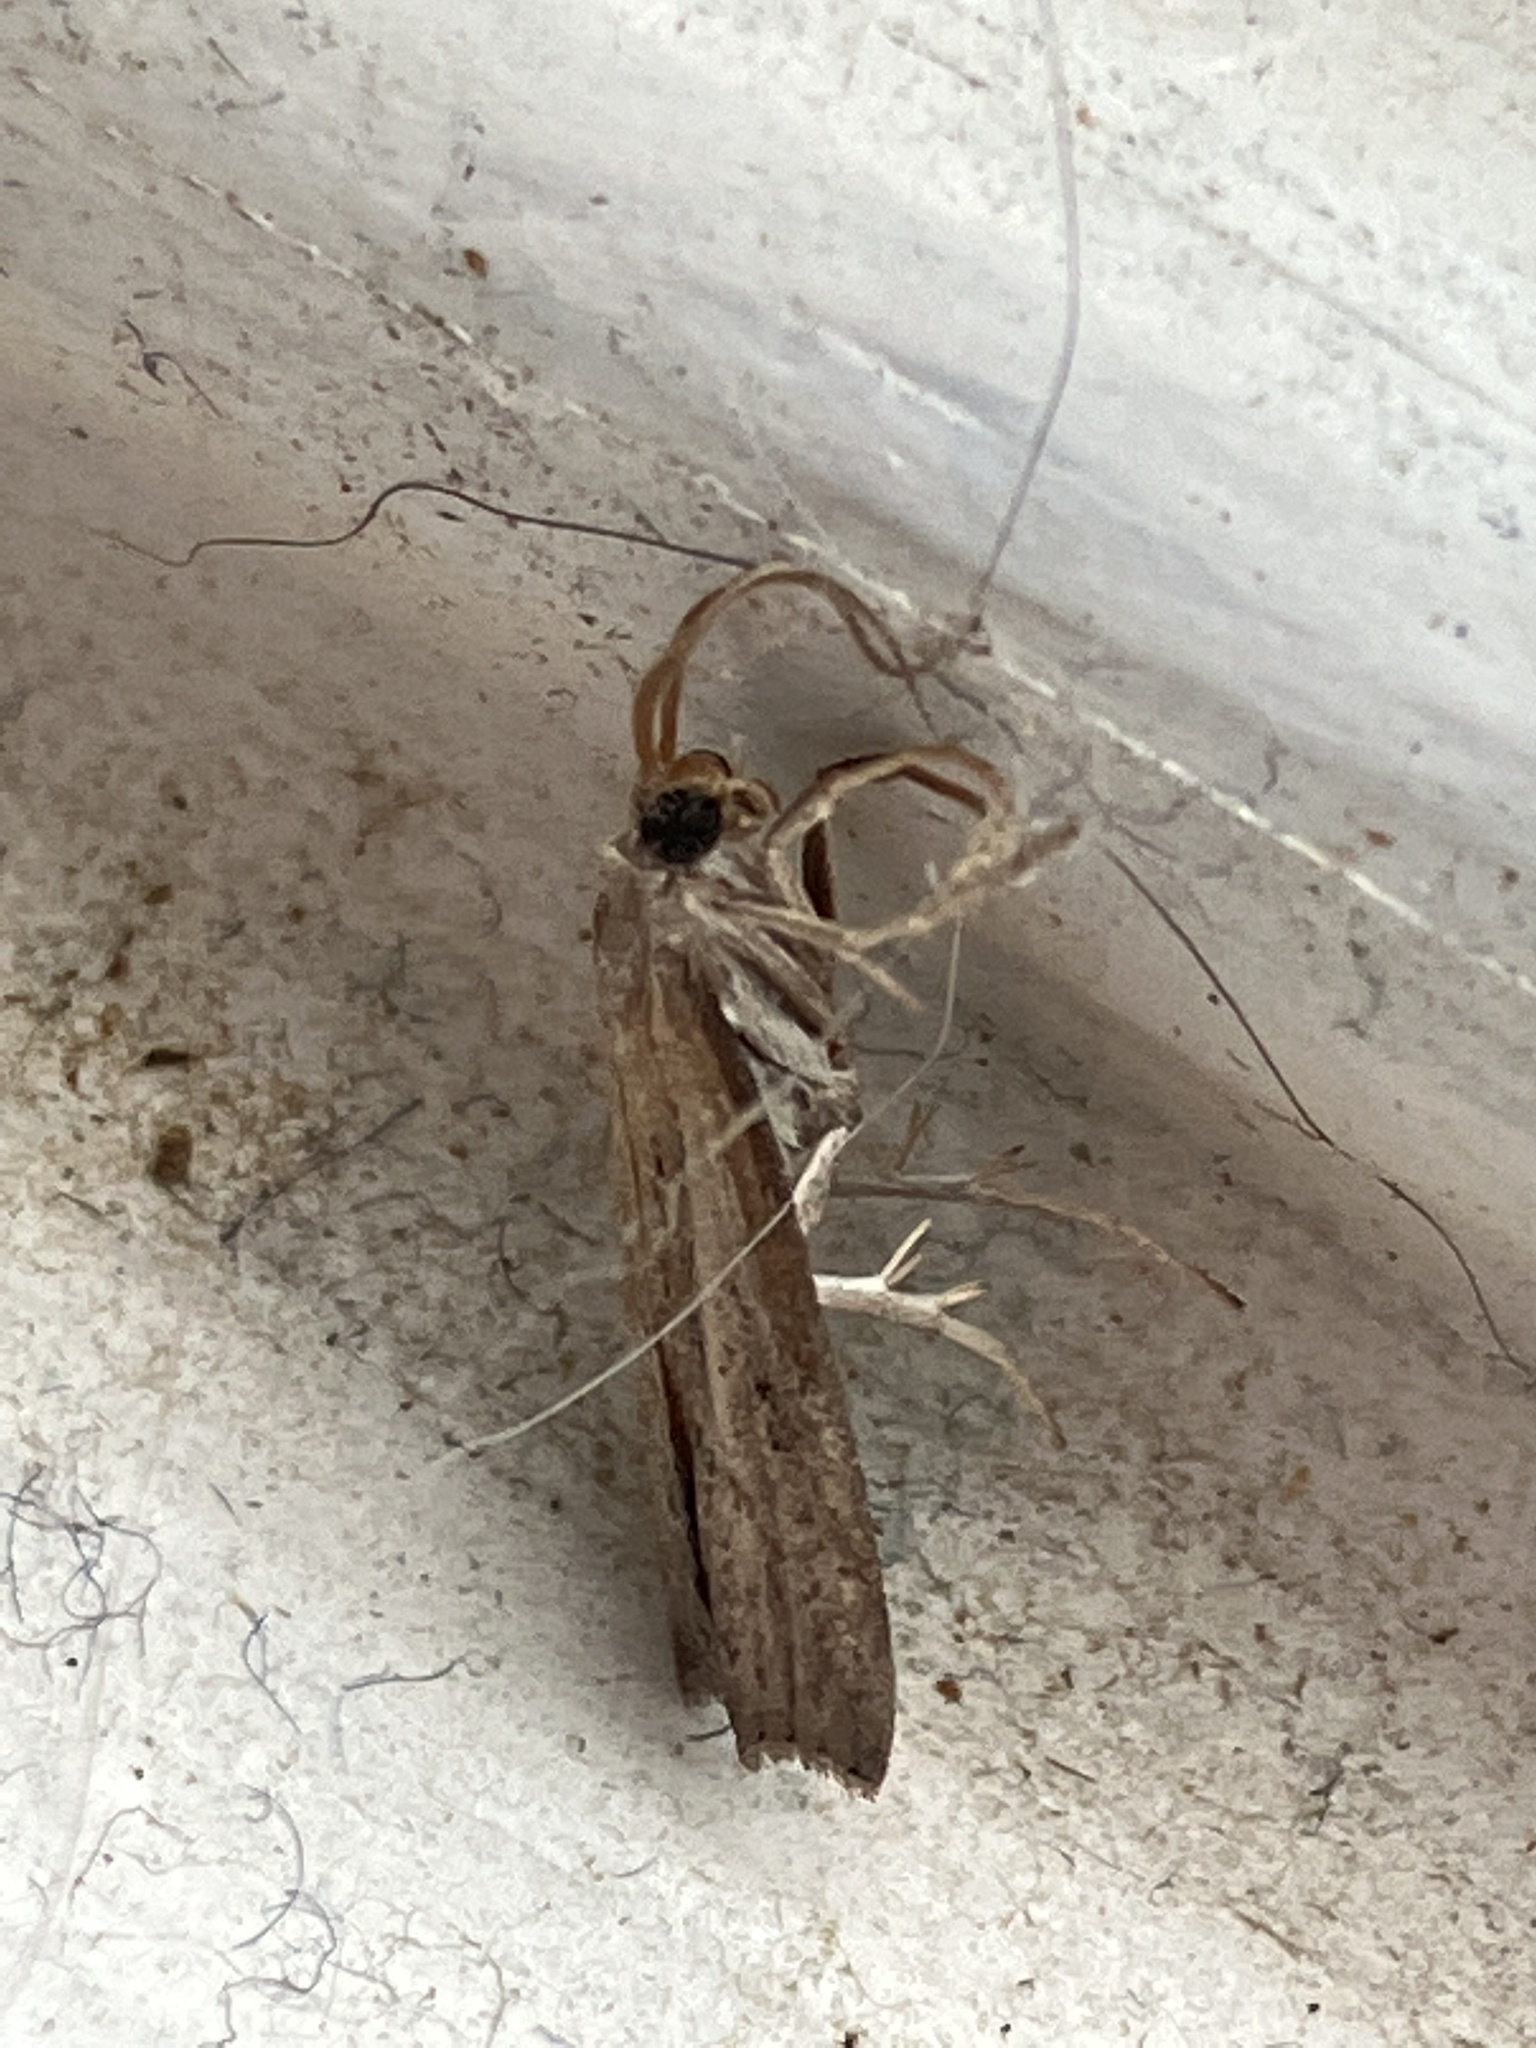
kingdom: Animalia
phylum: Arthropoda
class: Insecta
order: Lepidoptera
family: Crambidae
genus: Fissicrambus
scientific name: Fissicrambus mutabilis
